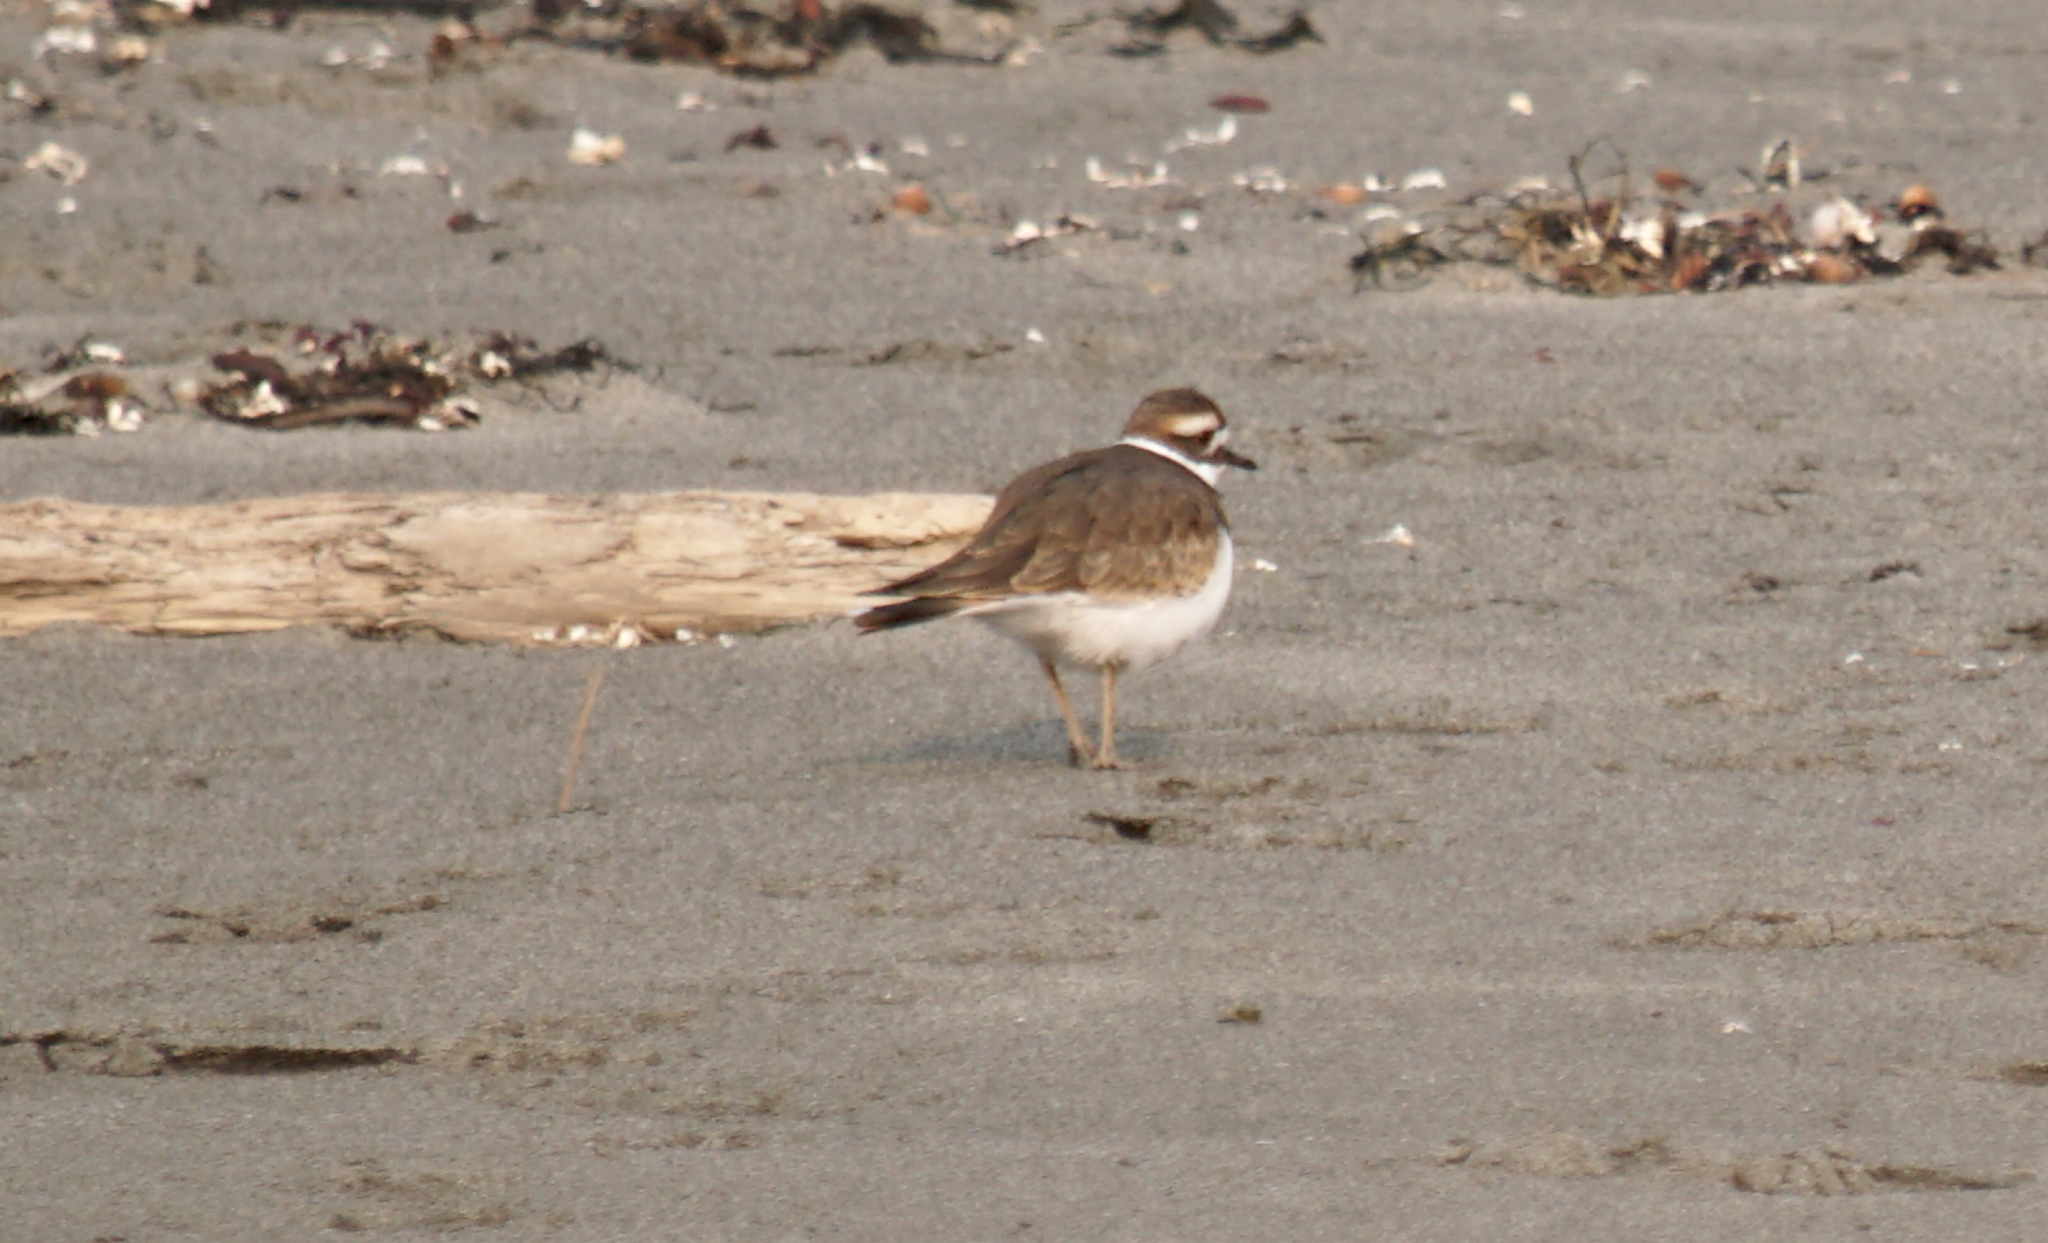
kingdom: Animalia
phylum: Chordata
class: Aves
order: Charadriiformes
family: Charadriidae
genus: Charadrius
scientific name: Charadrius vociferus
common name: Killdeer
